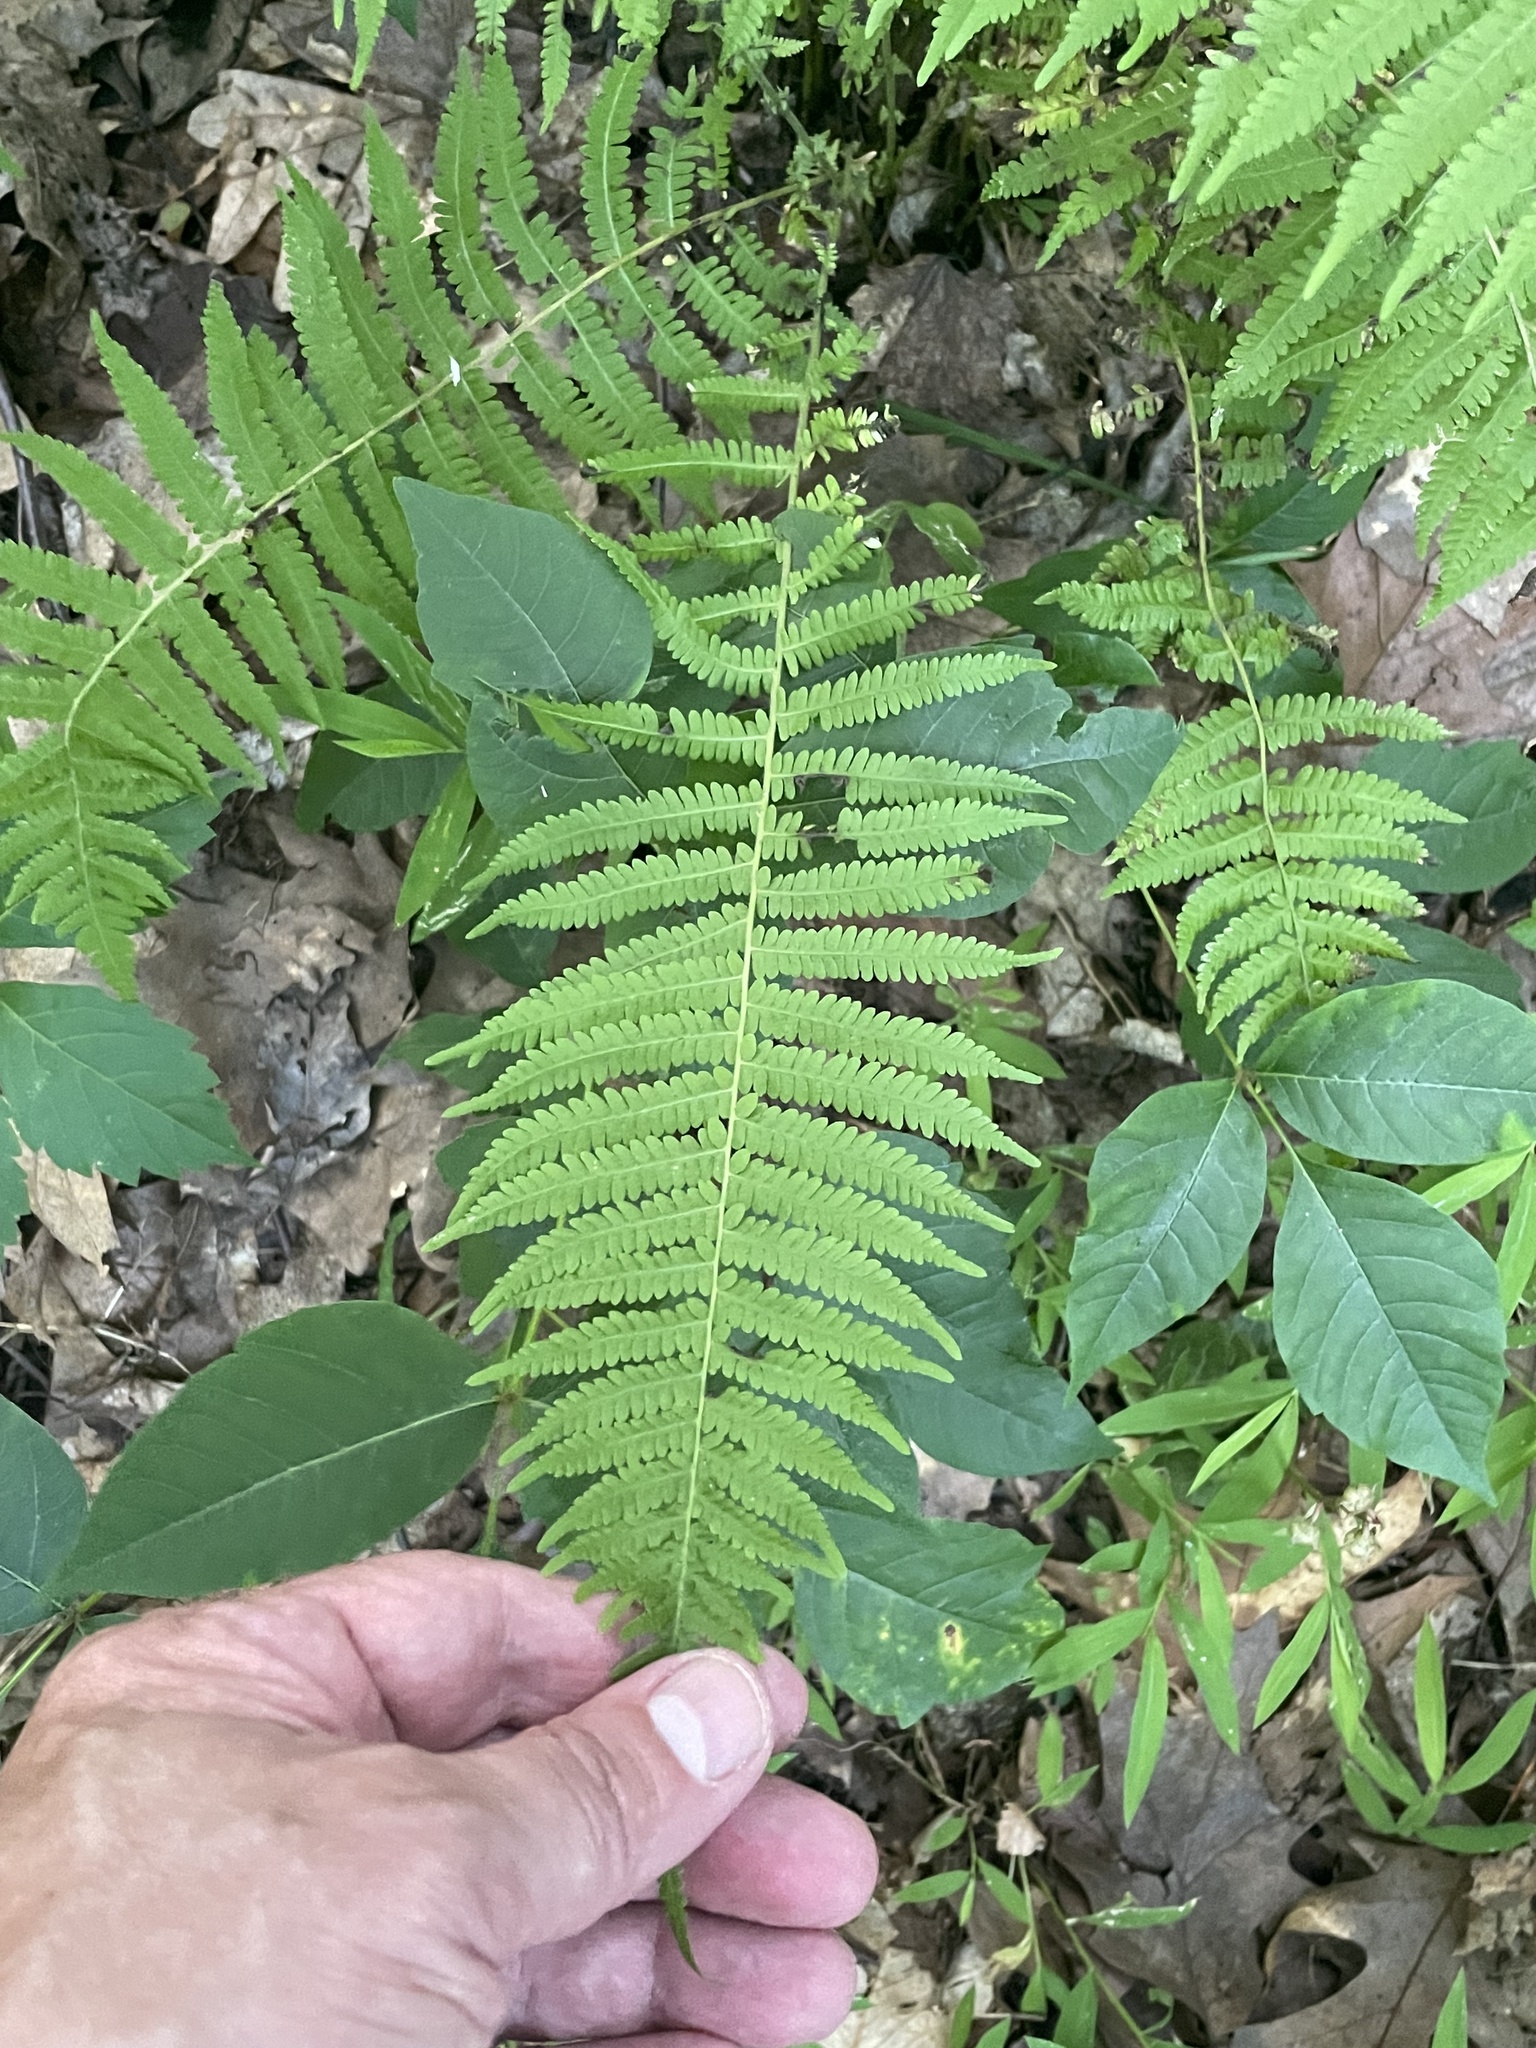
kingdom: Plantae
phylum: Tracheophyta
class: Polypodiopsida
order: Polypodiales
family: Thelypteridaceae
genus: Amauropelta
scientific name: Amauropelta noveboracensis
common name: New york fern
